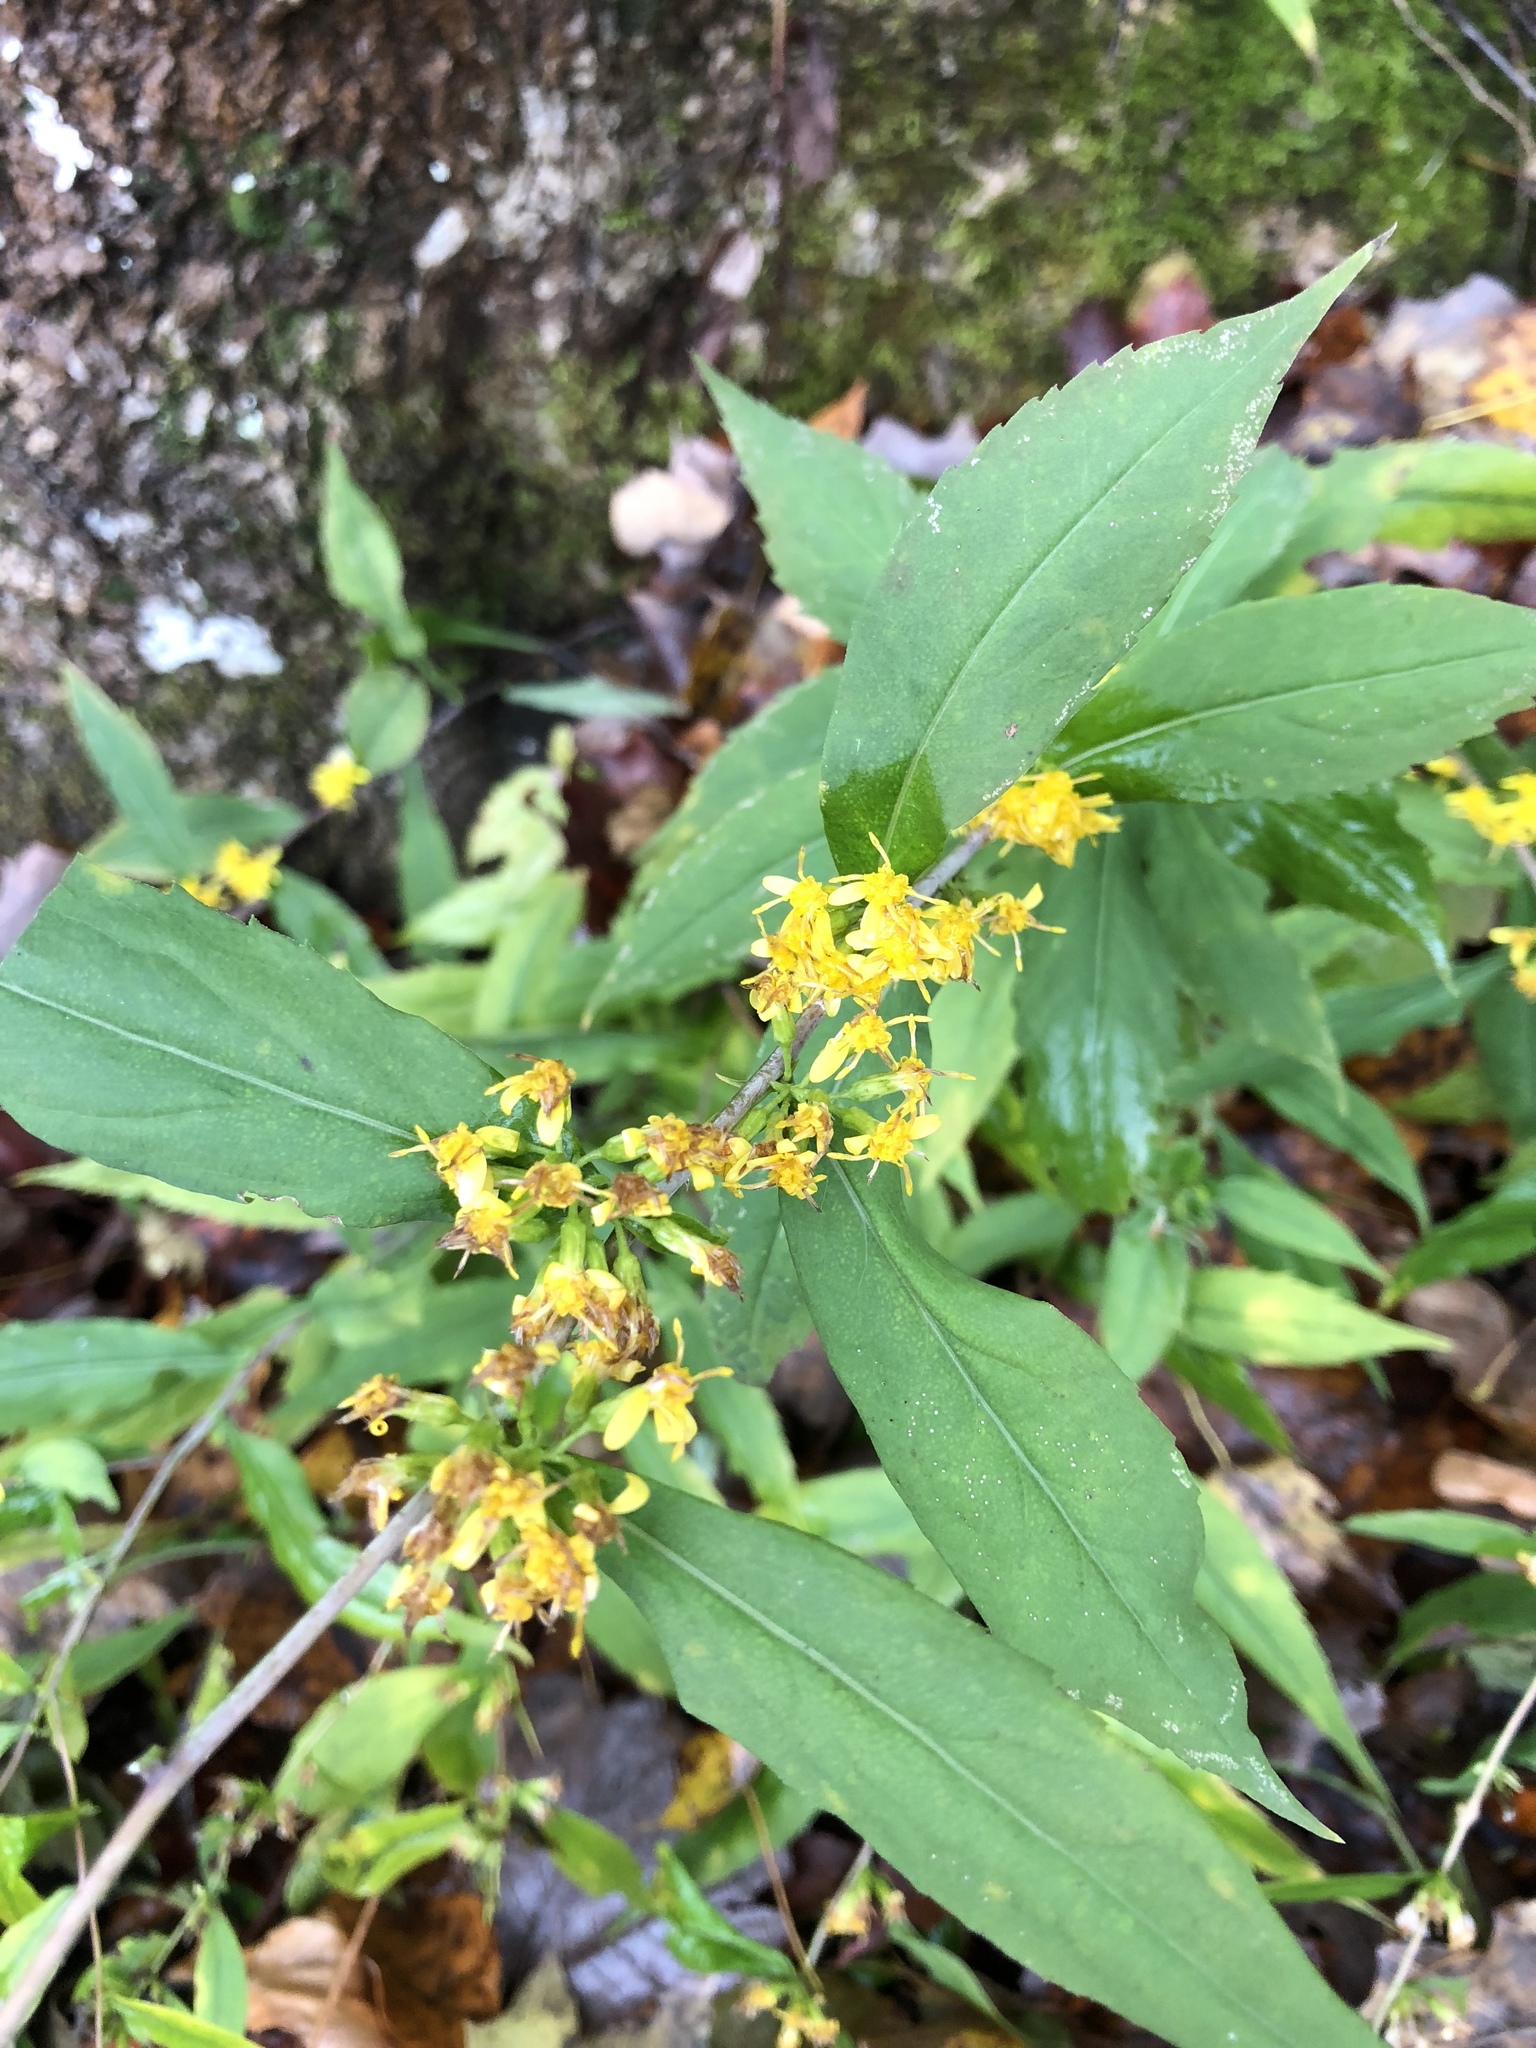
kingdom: Plantae
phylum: Tracheophyta
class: Magnoliopsida
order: Asterales
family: Asteraceae
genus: Solidago
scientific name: Solidago caesia
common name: Woodland goldenrod
